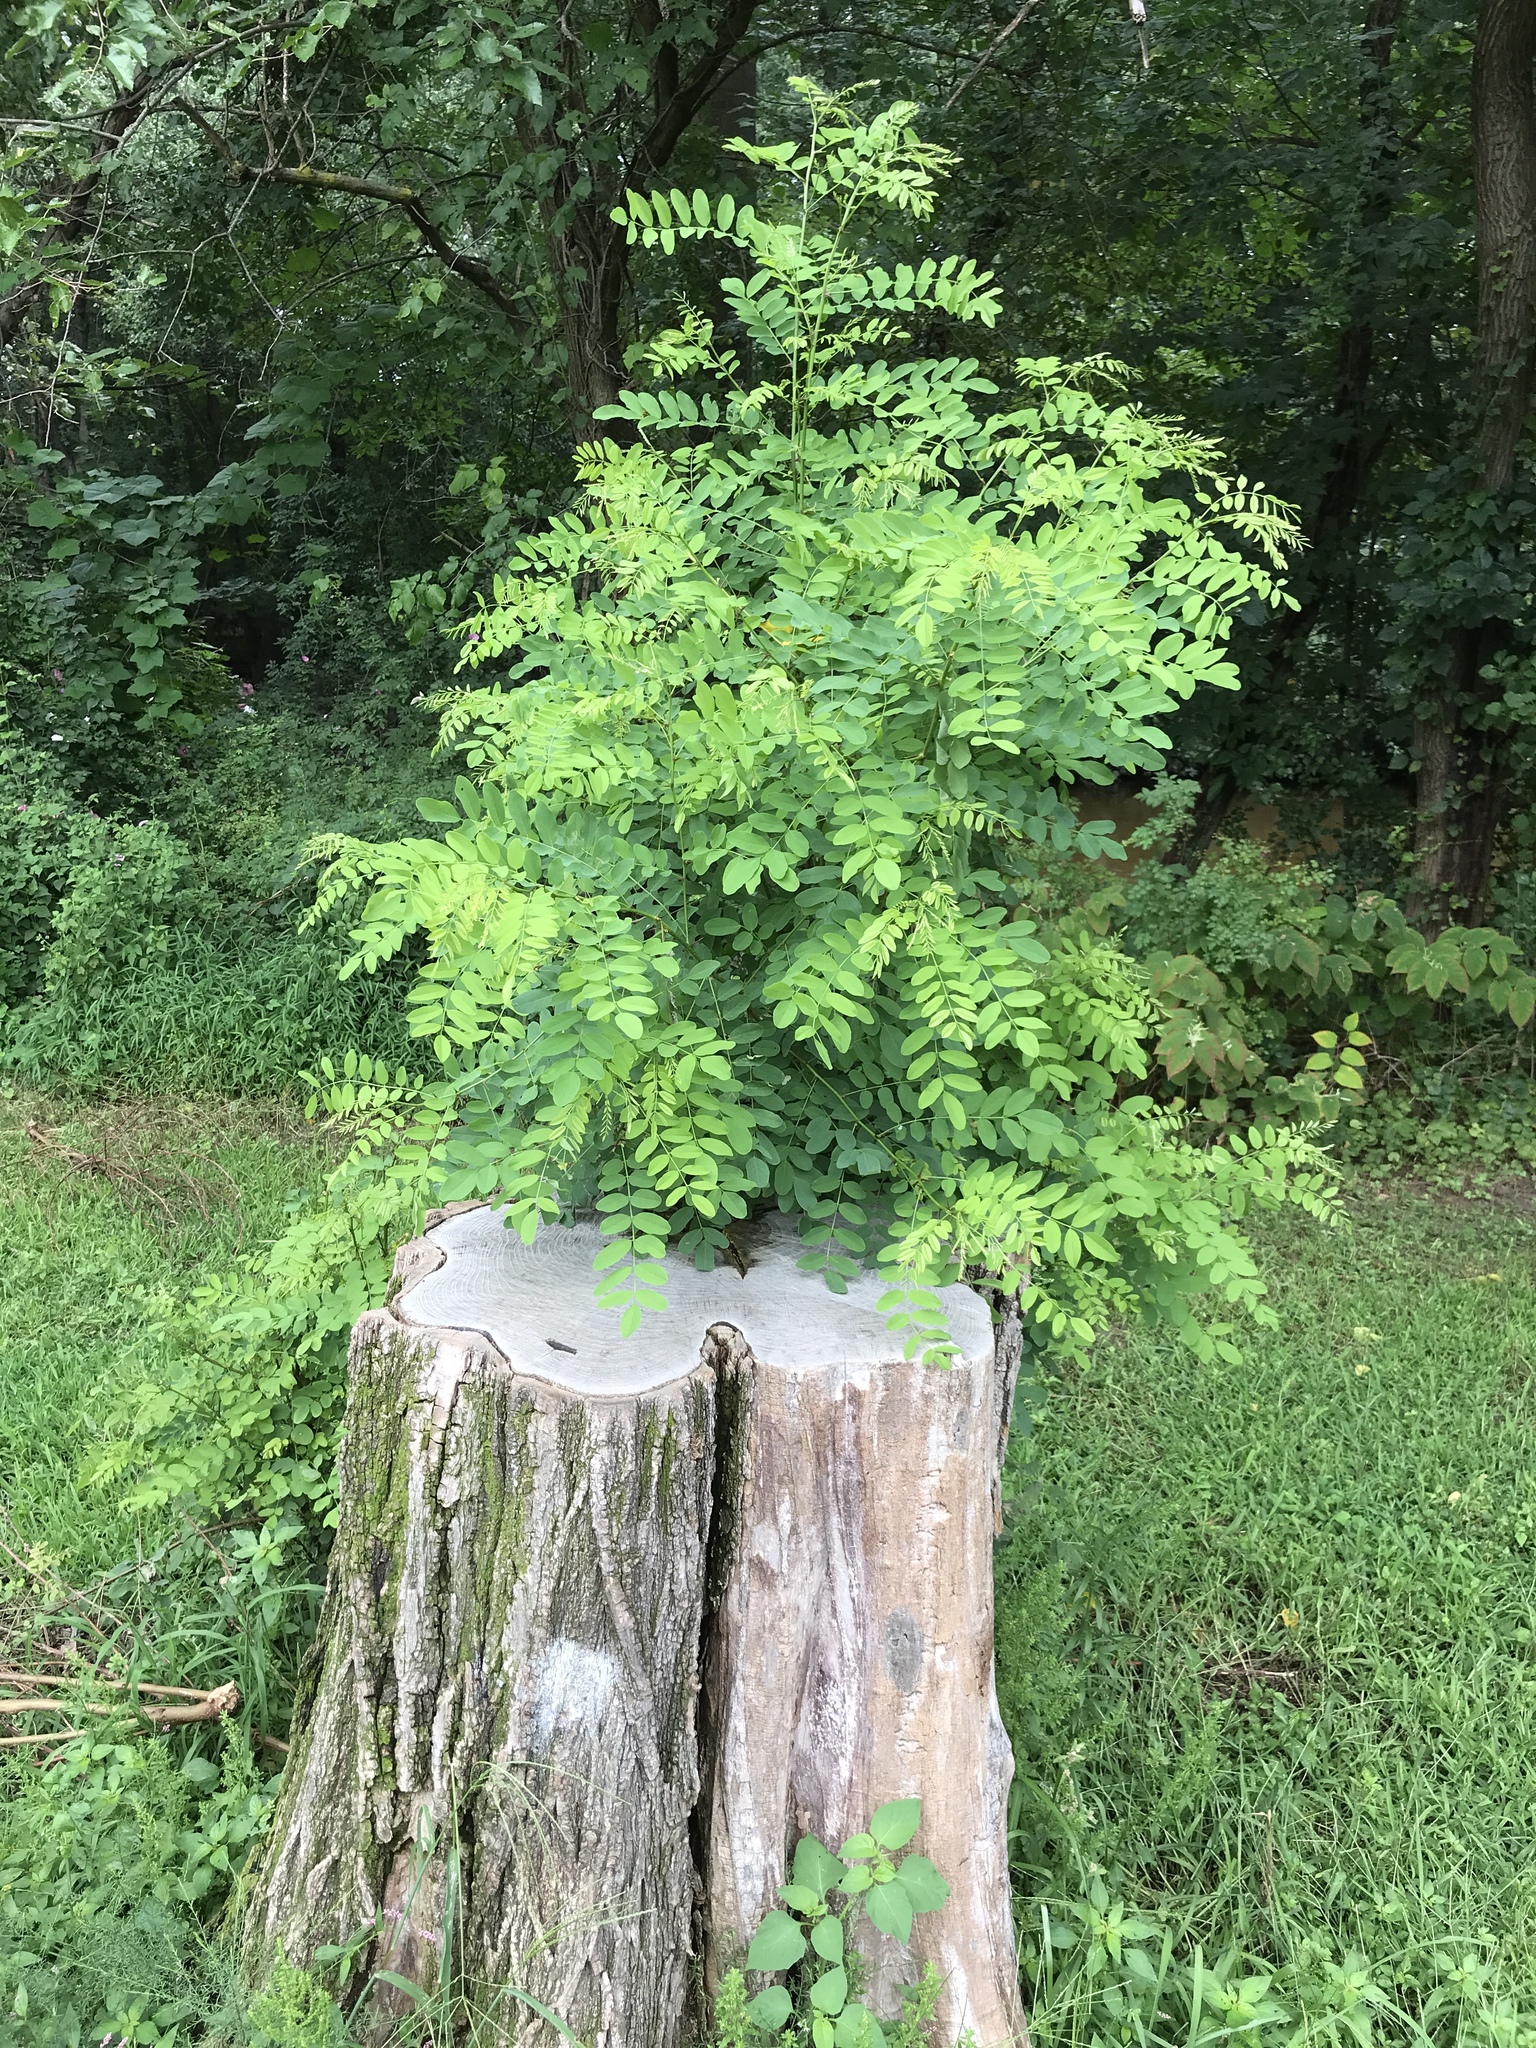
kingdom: Plantae
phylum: Tracheophyta
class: Magnoliopsida
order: Fabales
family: Fabaceae
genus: Robinia
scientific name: Robinia pseudoacacia
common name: Black locust
